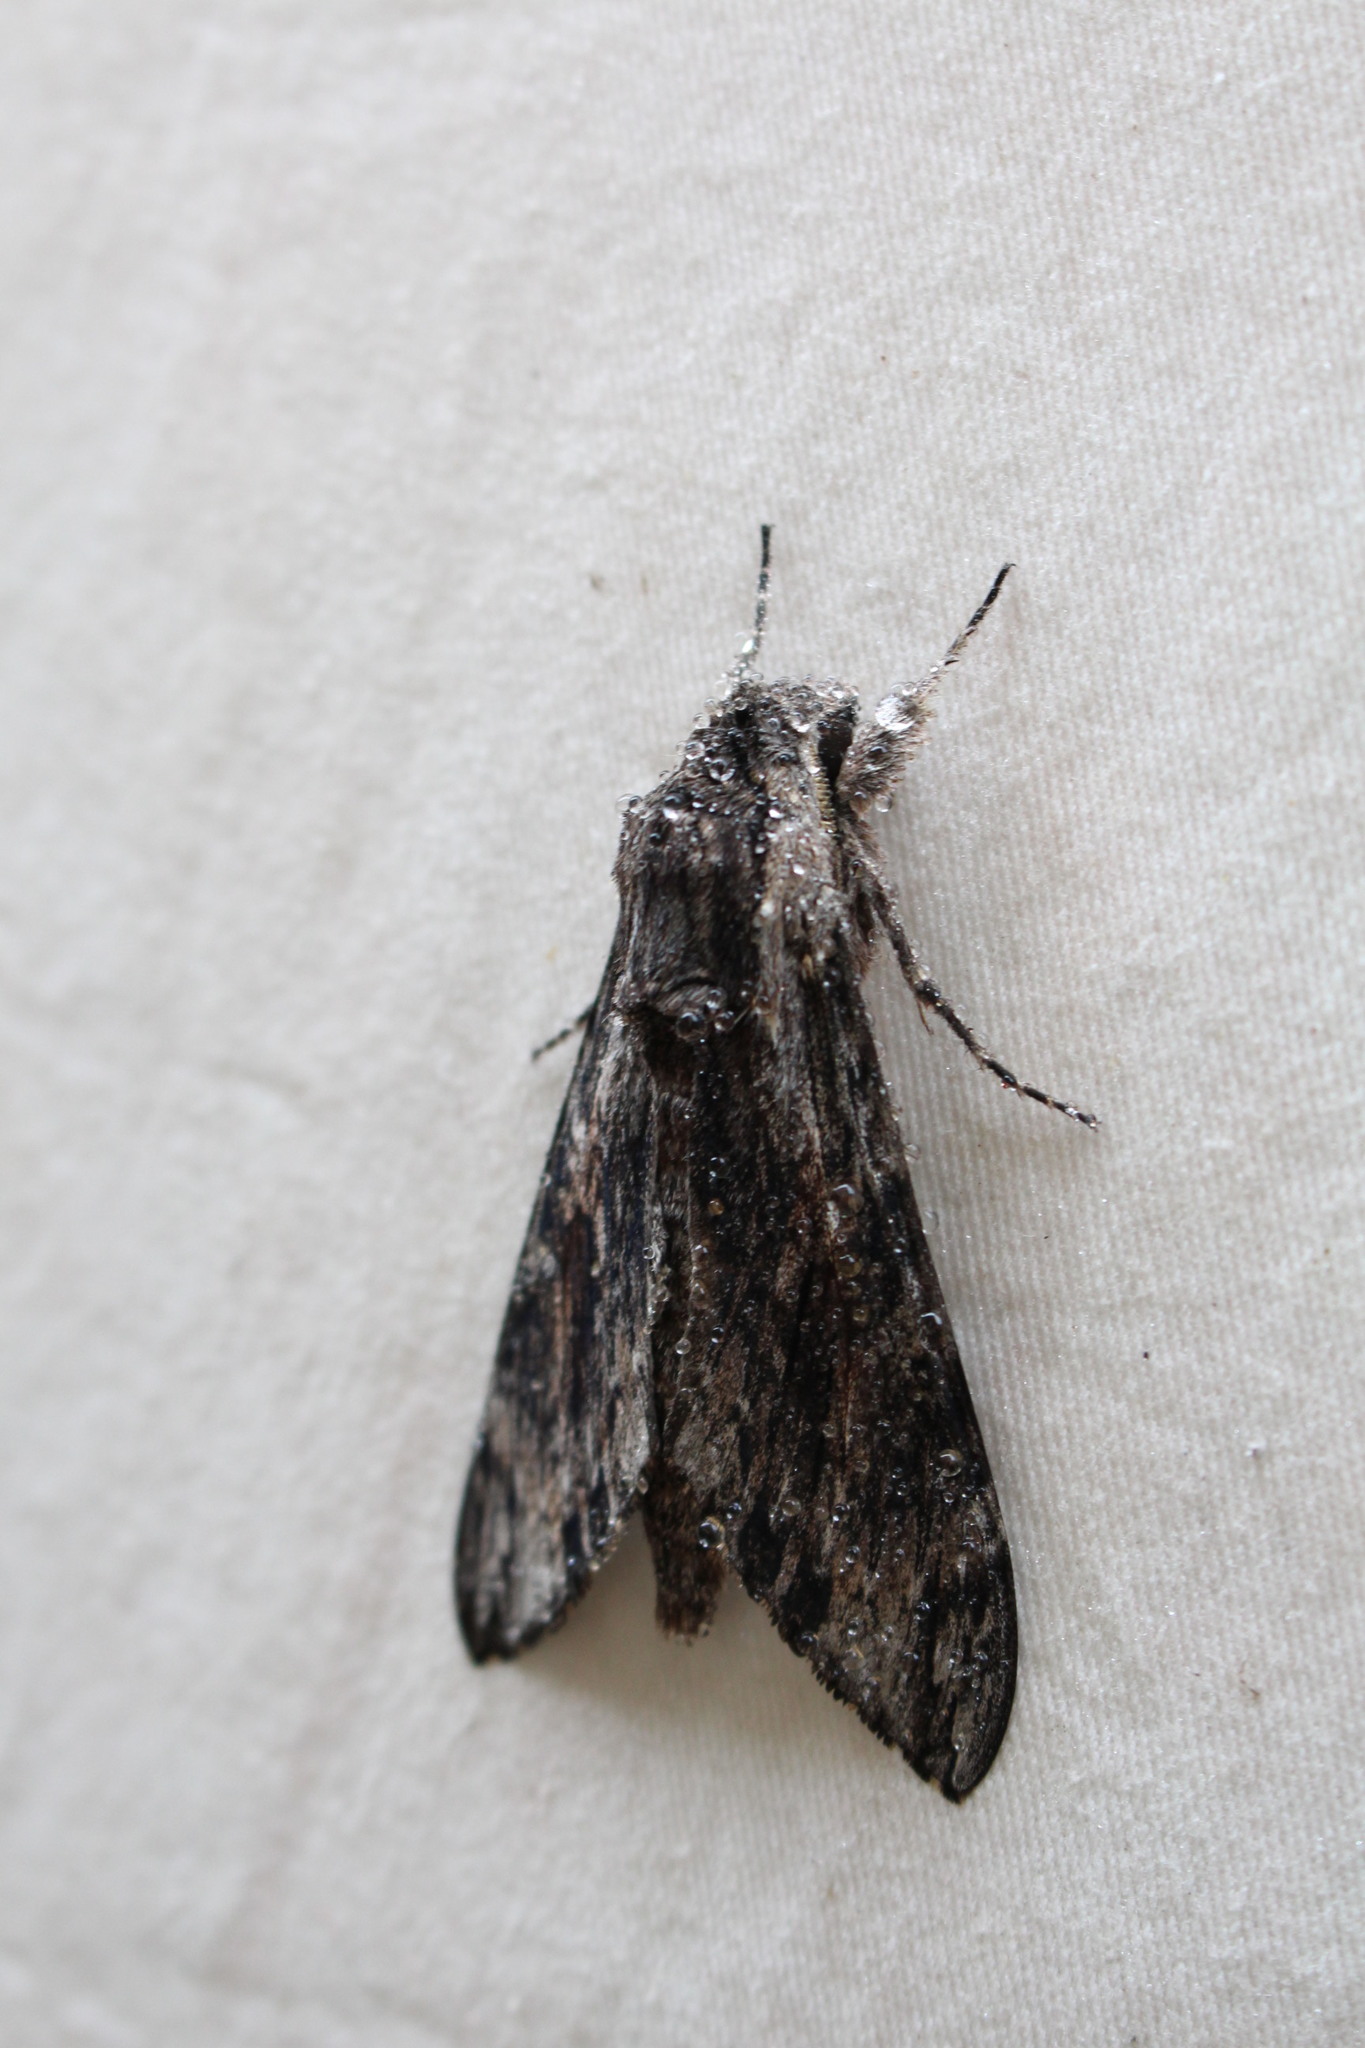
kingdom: Animalia
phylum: Arthropoda
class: Insecta
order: Lepidoptera
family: Sphingidae
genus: Agrius
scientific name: Agrius convolvuli
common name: Convolvulus hawkmoth
